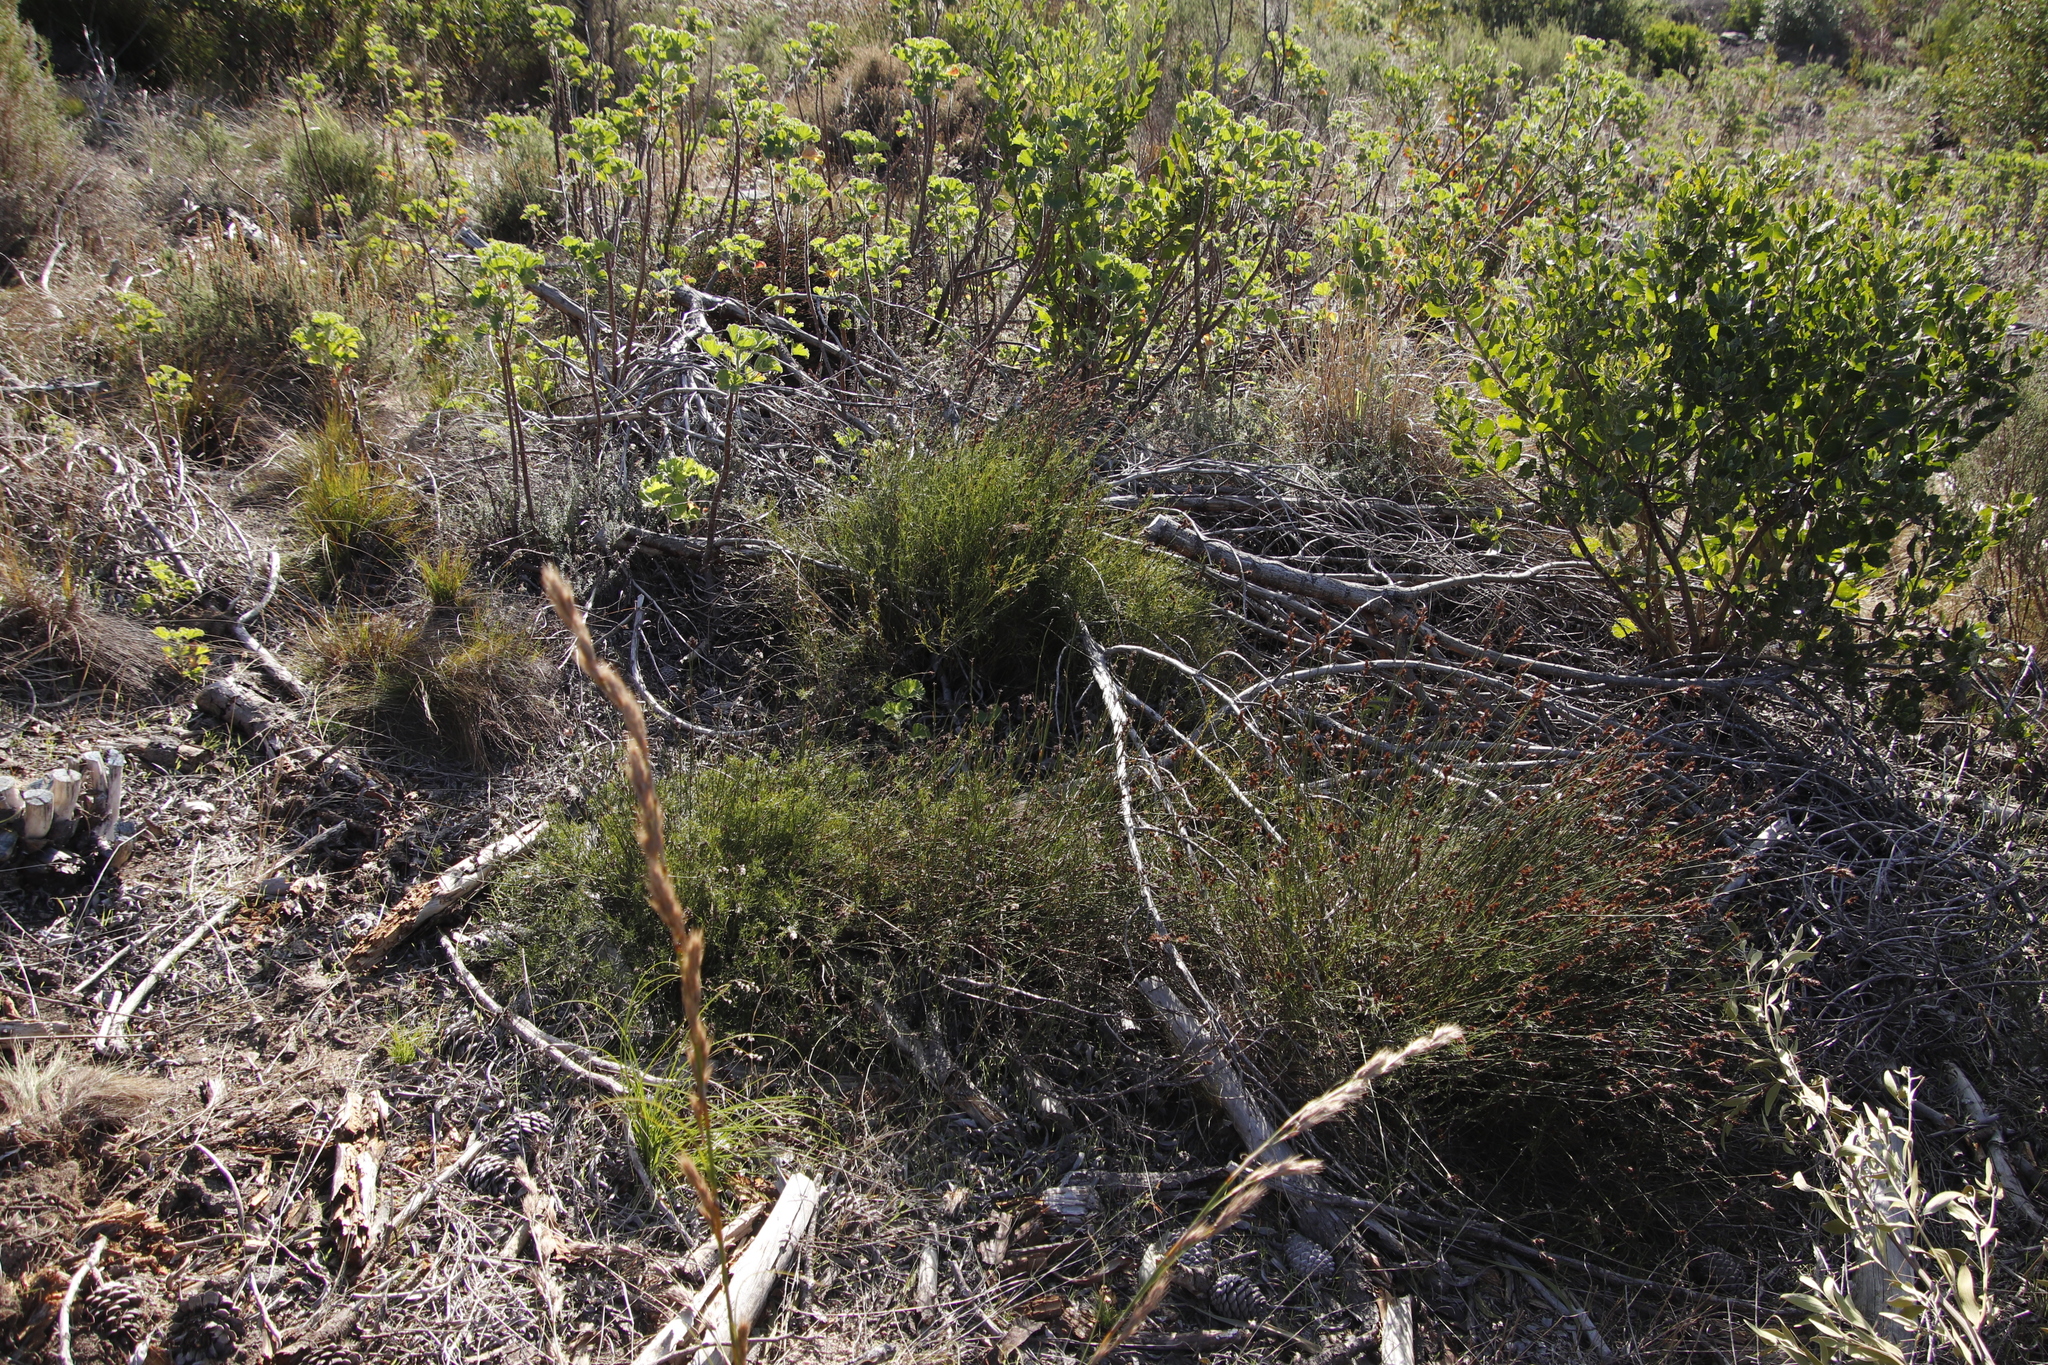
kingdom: Plantae
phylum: Tracheophyta
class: Liliopsida
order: Poales
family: Restionaceae
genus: Restio
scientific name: Restio capensis
